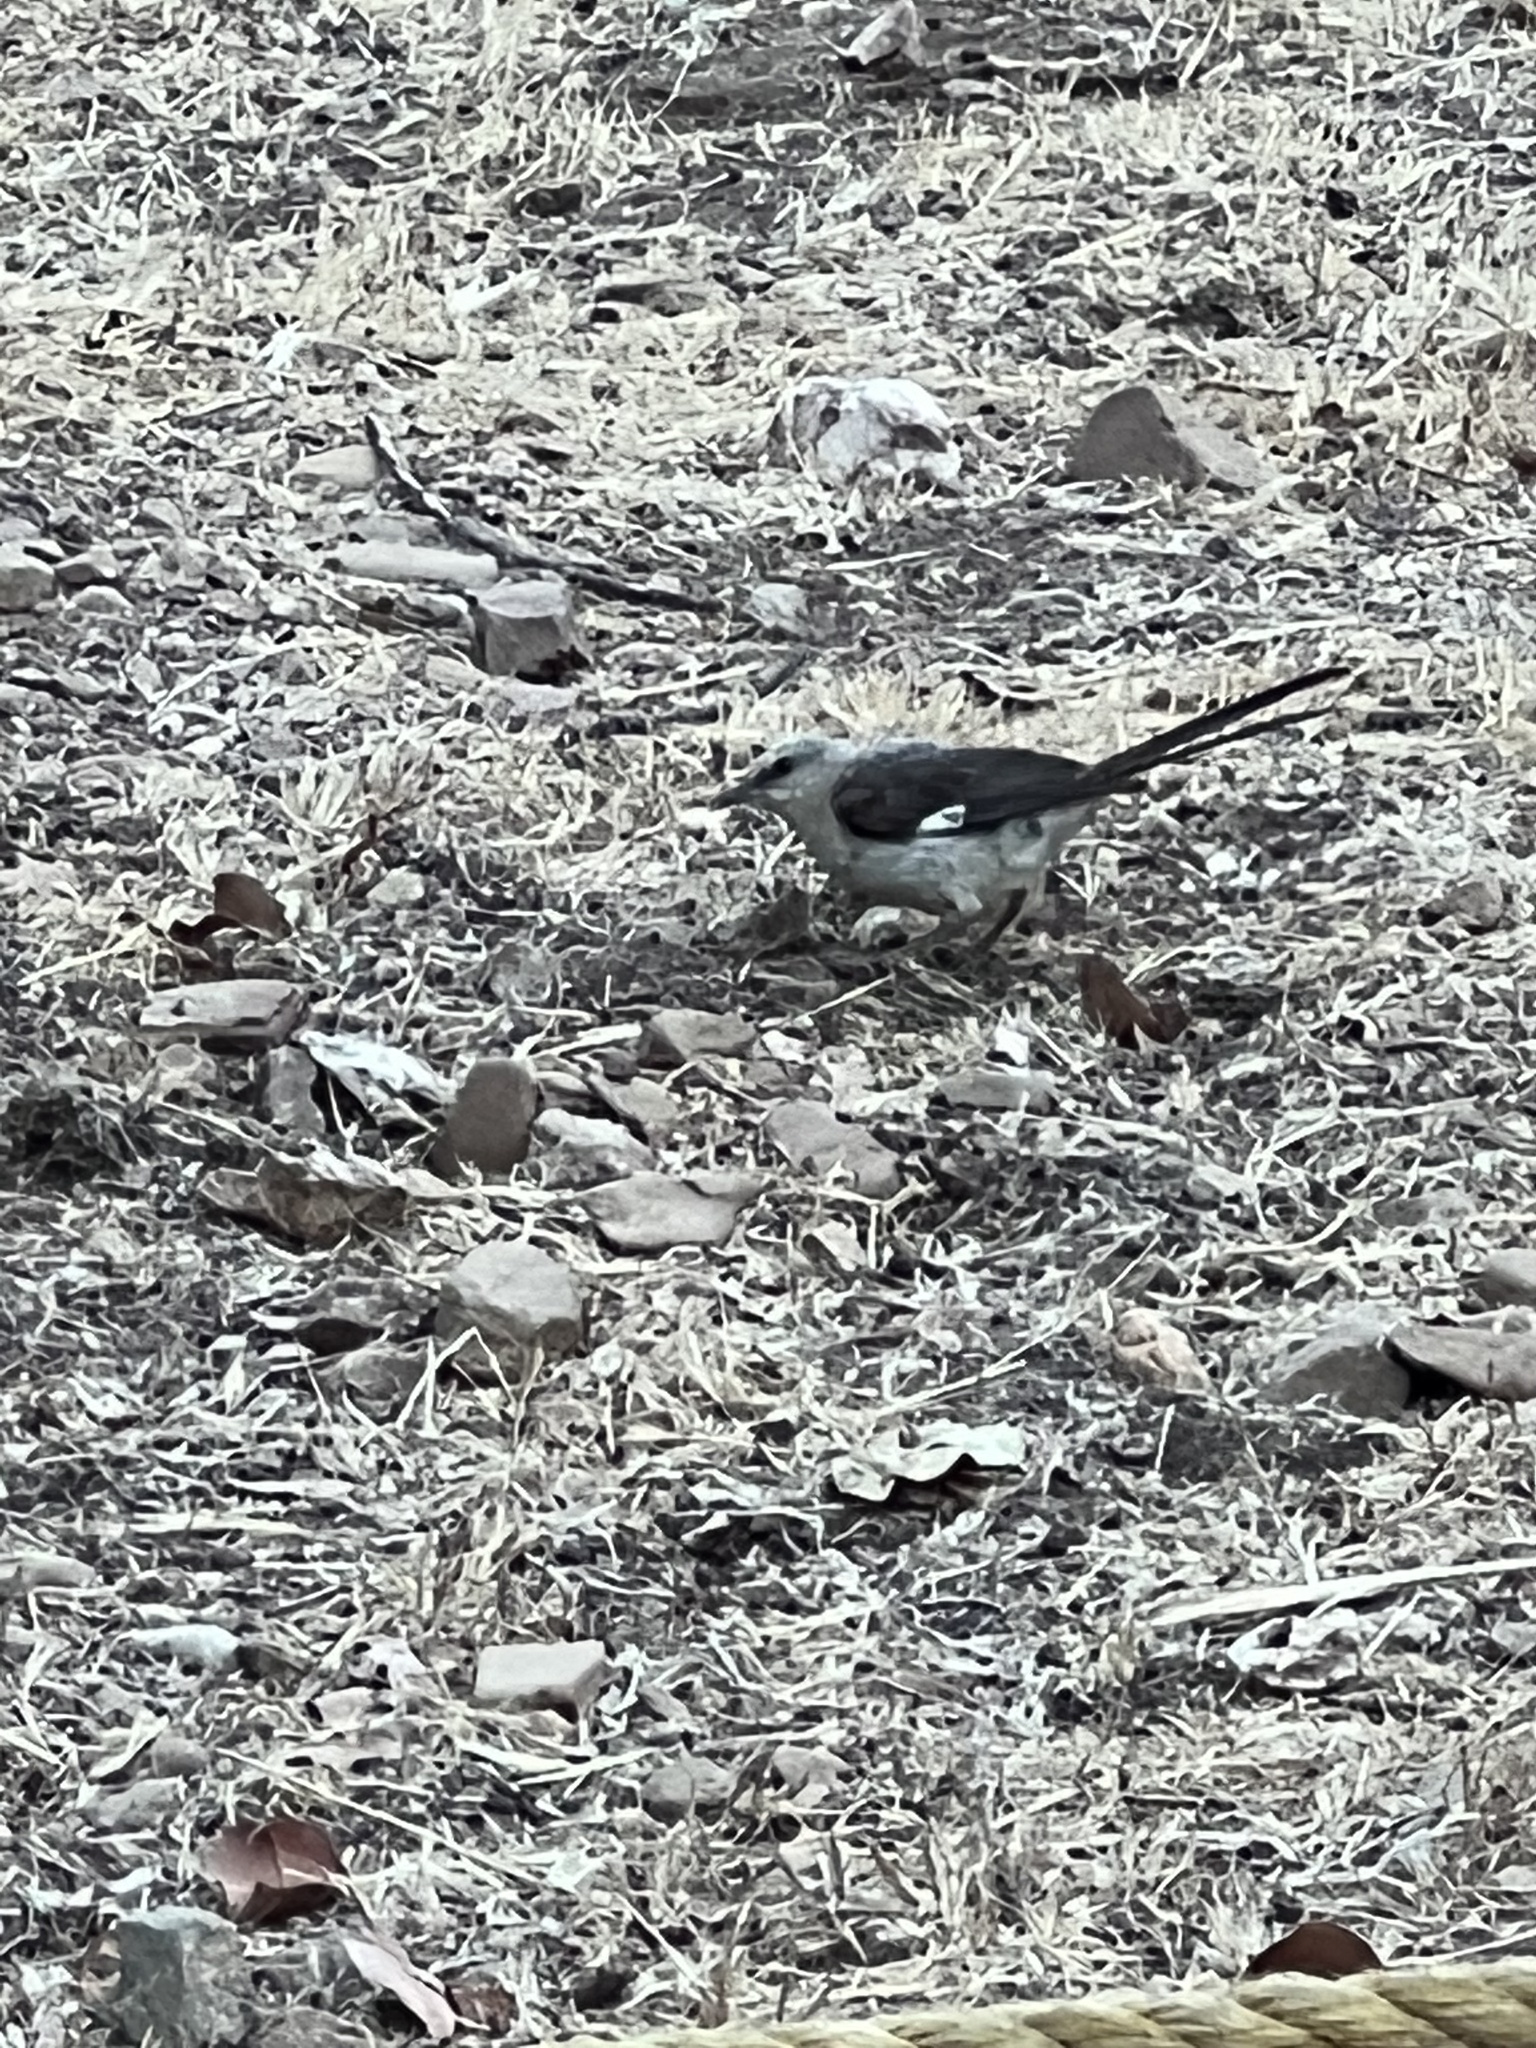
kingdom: Animalia
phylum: Chordata
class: Aves
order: Passeriformes
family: Mimidae
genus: Mimus
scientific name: Mimus polyglottos
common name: Northern mockingbird
